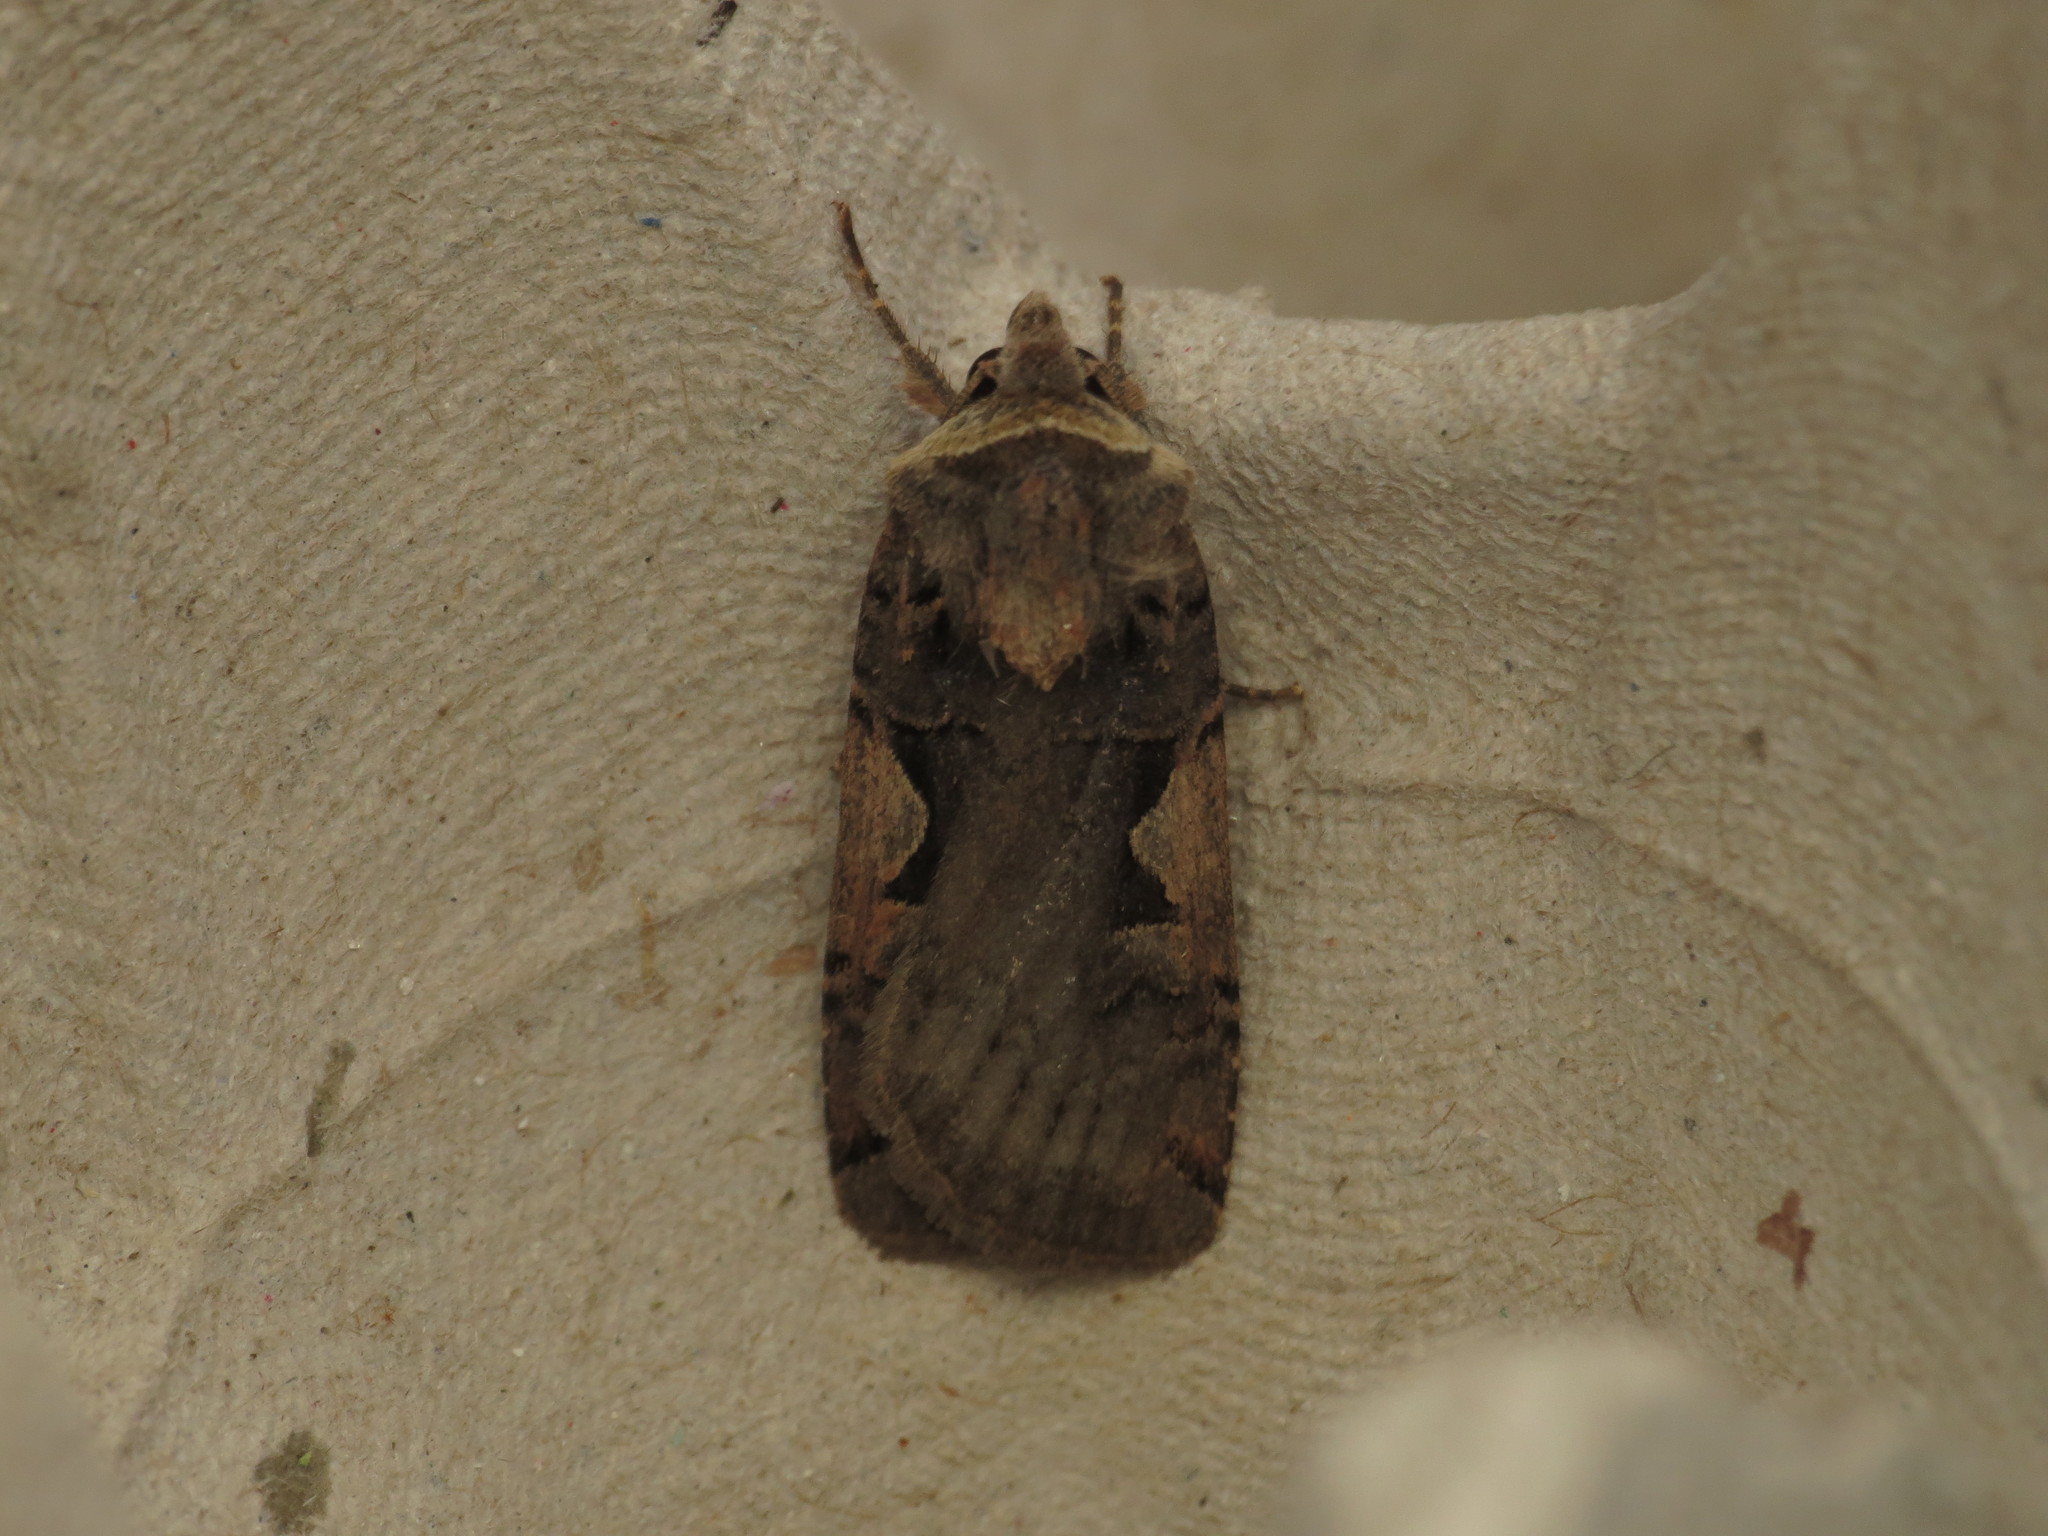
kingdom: Animalia
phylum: Arthropoda
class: Insecta
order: Lepidoptera
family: Noctuidae
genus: Xestia
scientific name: Xestia c-nigrum
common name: Setaceous hebrew character
